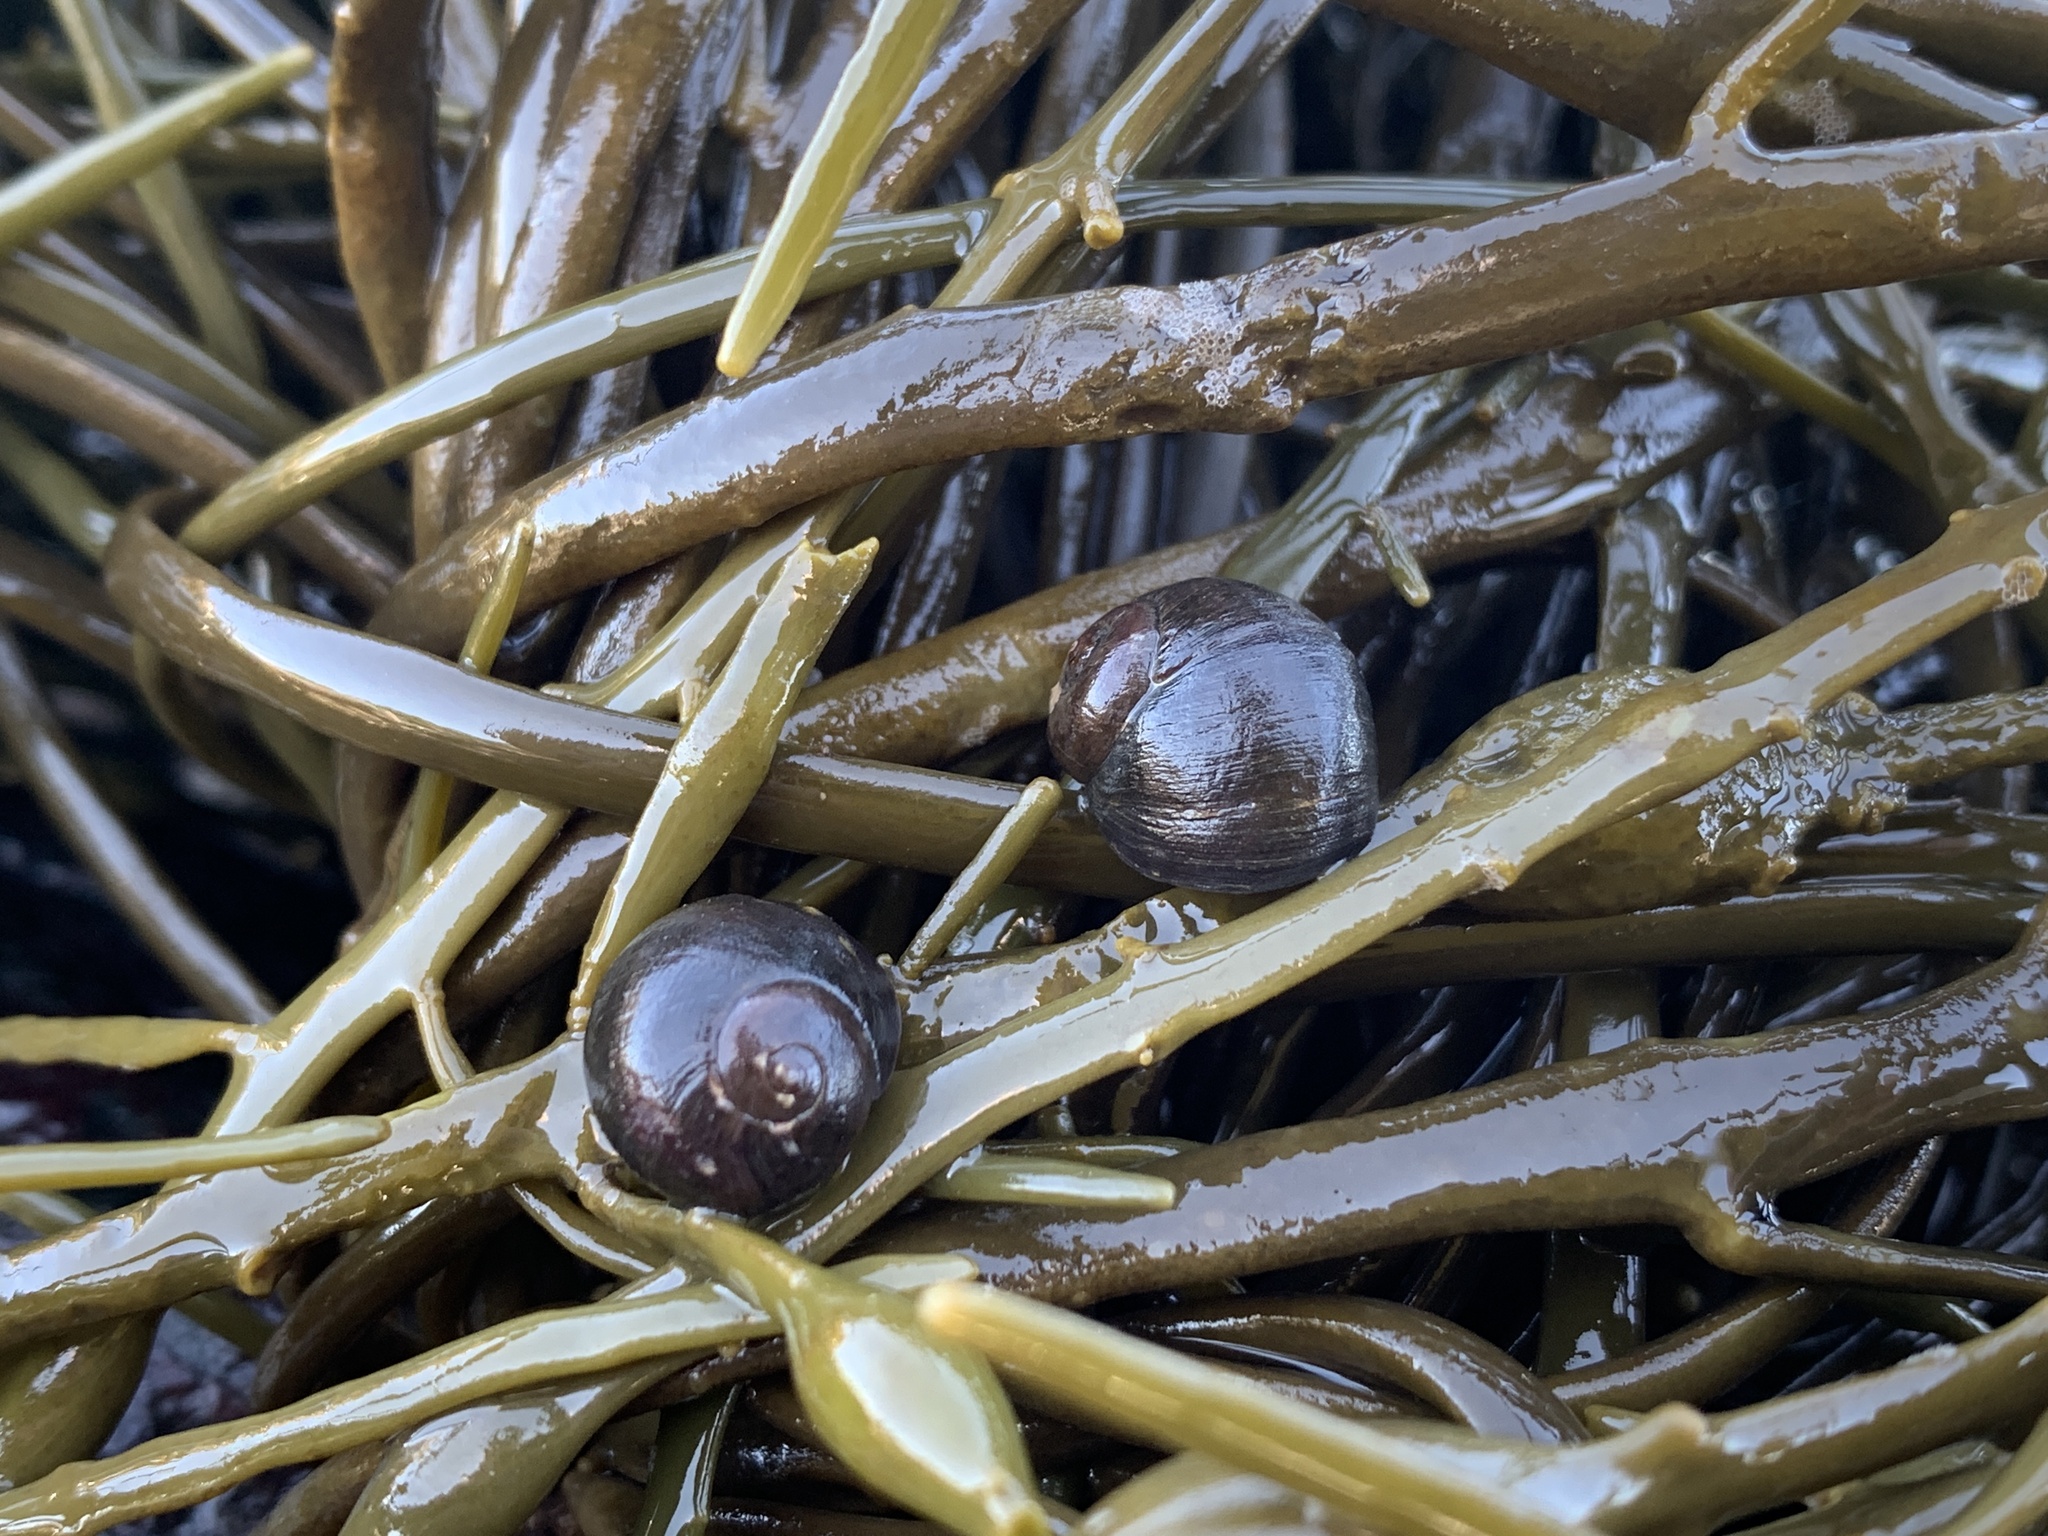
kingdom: Animalia
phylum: Mollusca
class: Gastropoda
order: Littorinimorpha
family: Littorinidae
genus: Littorina
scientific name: Littorina obtusata
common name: Flat periwinkle
